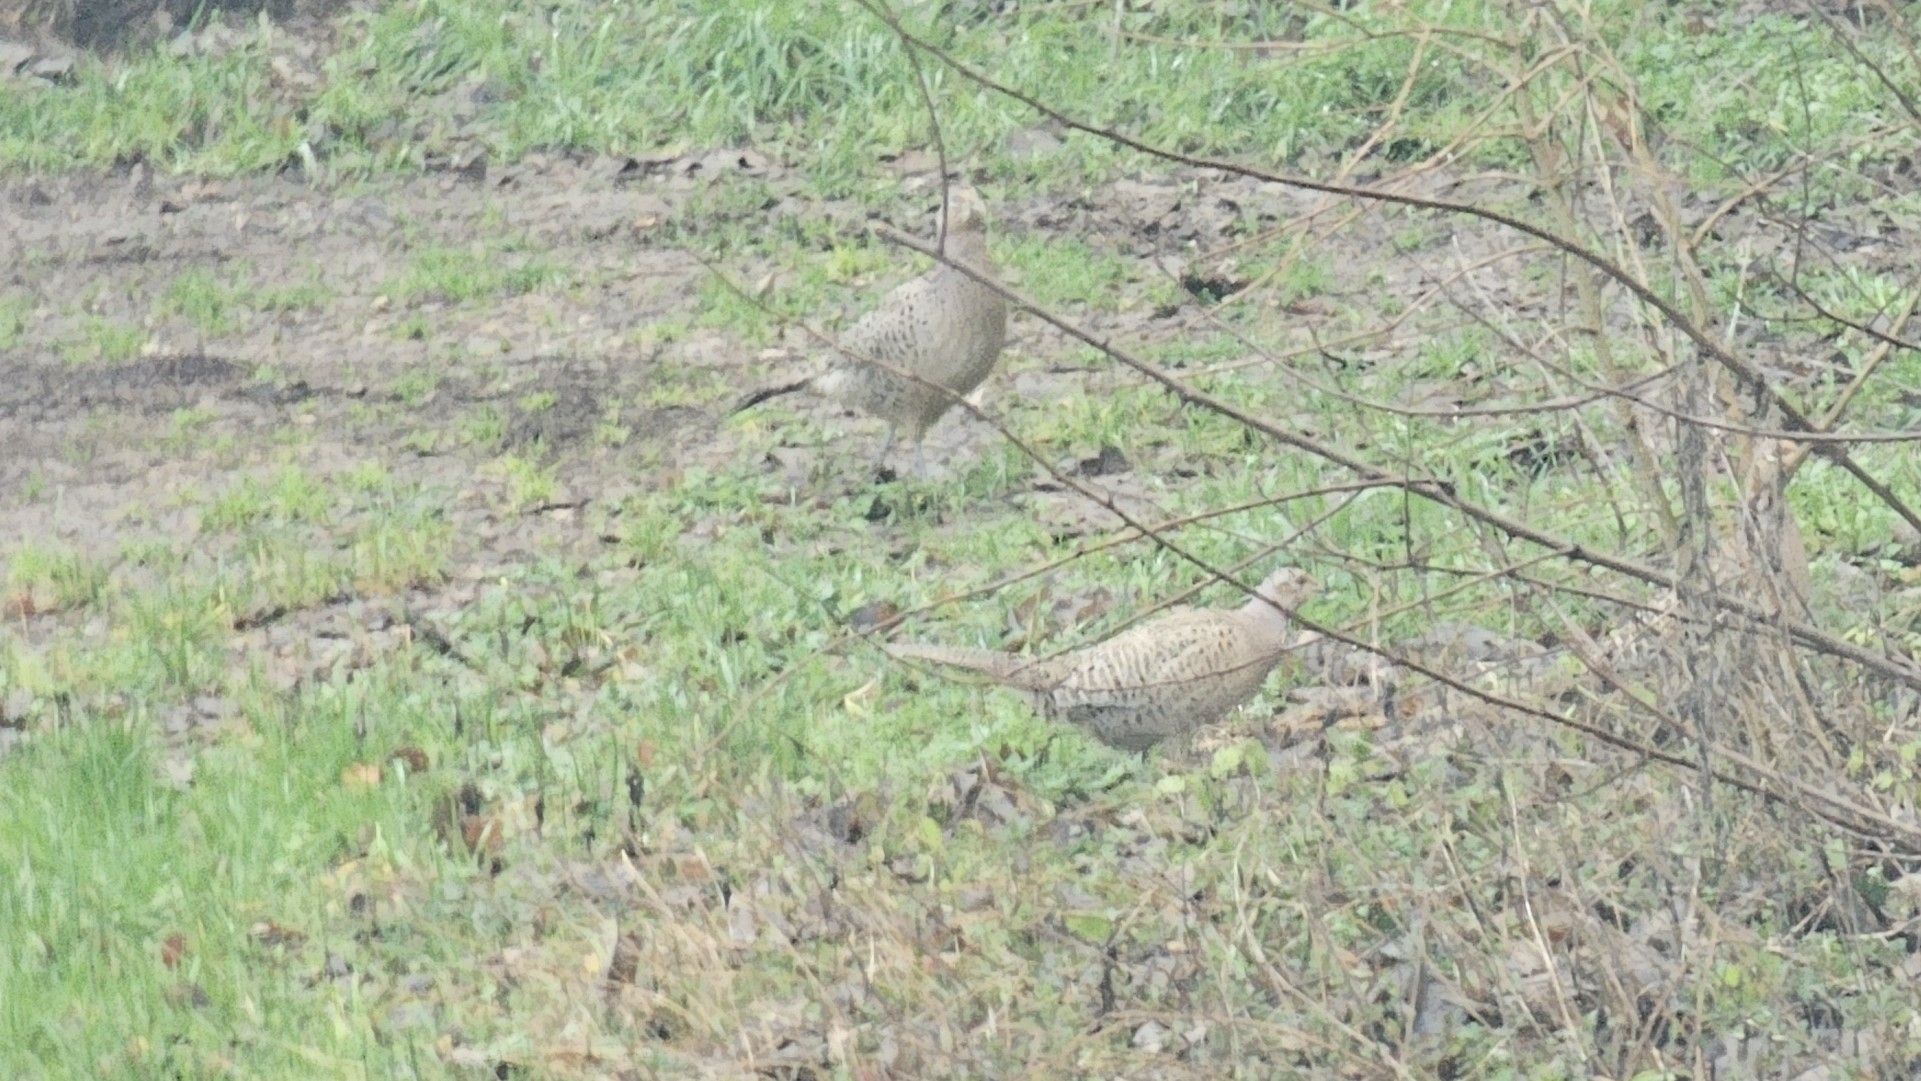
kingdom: Animalia
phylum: Chordata
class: Aves
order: Galliformes
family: Phasianidae
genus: Phasianus
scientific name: Phasianus colchicus
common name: Common pheasant
